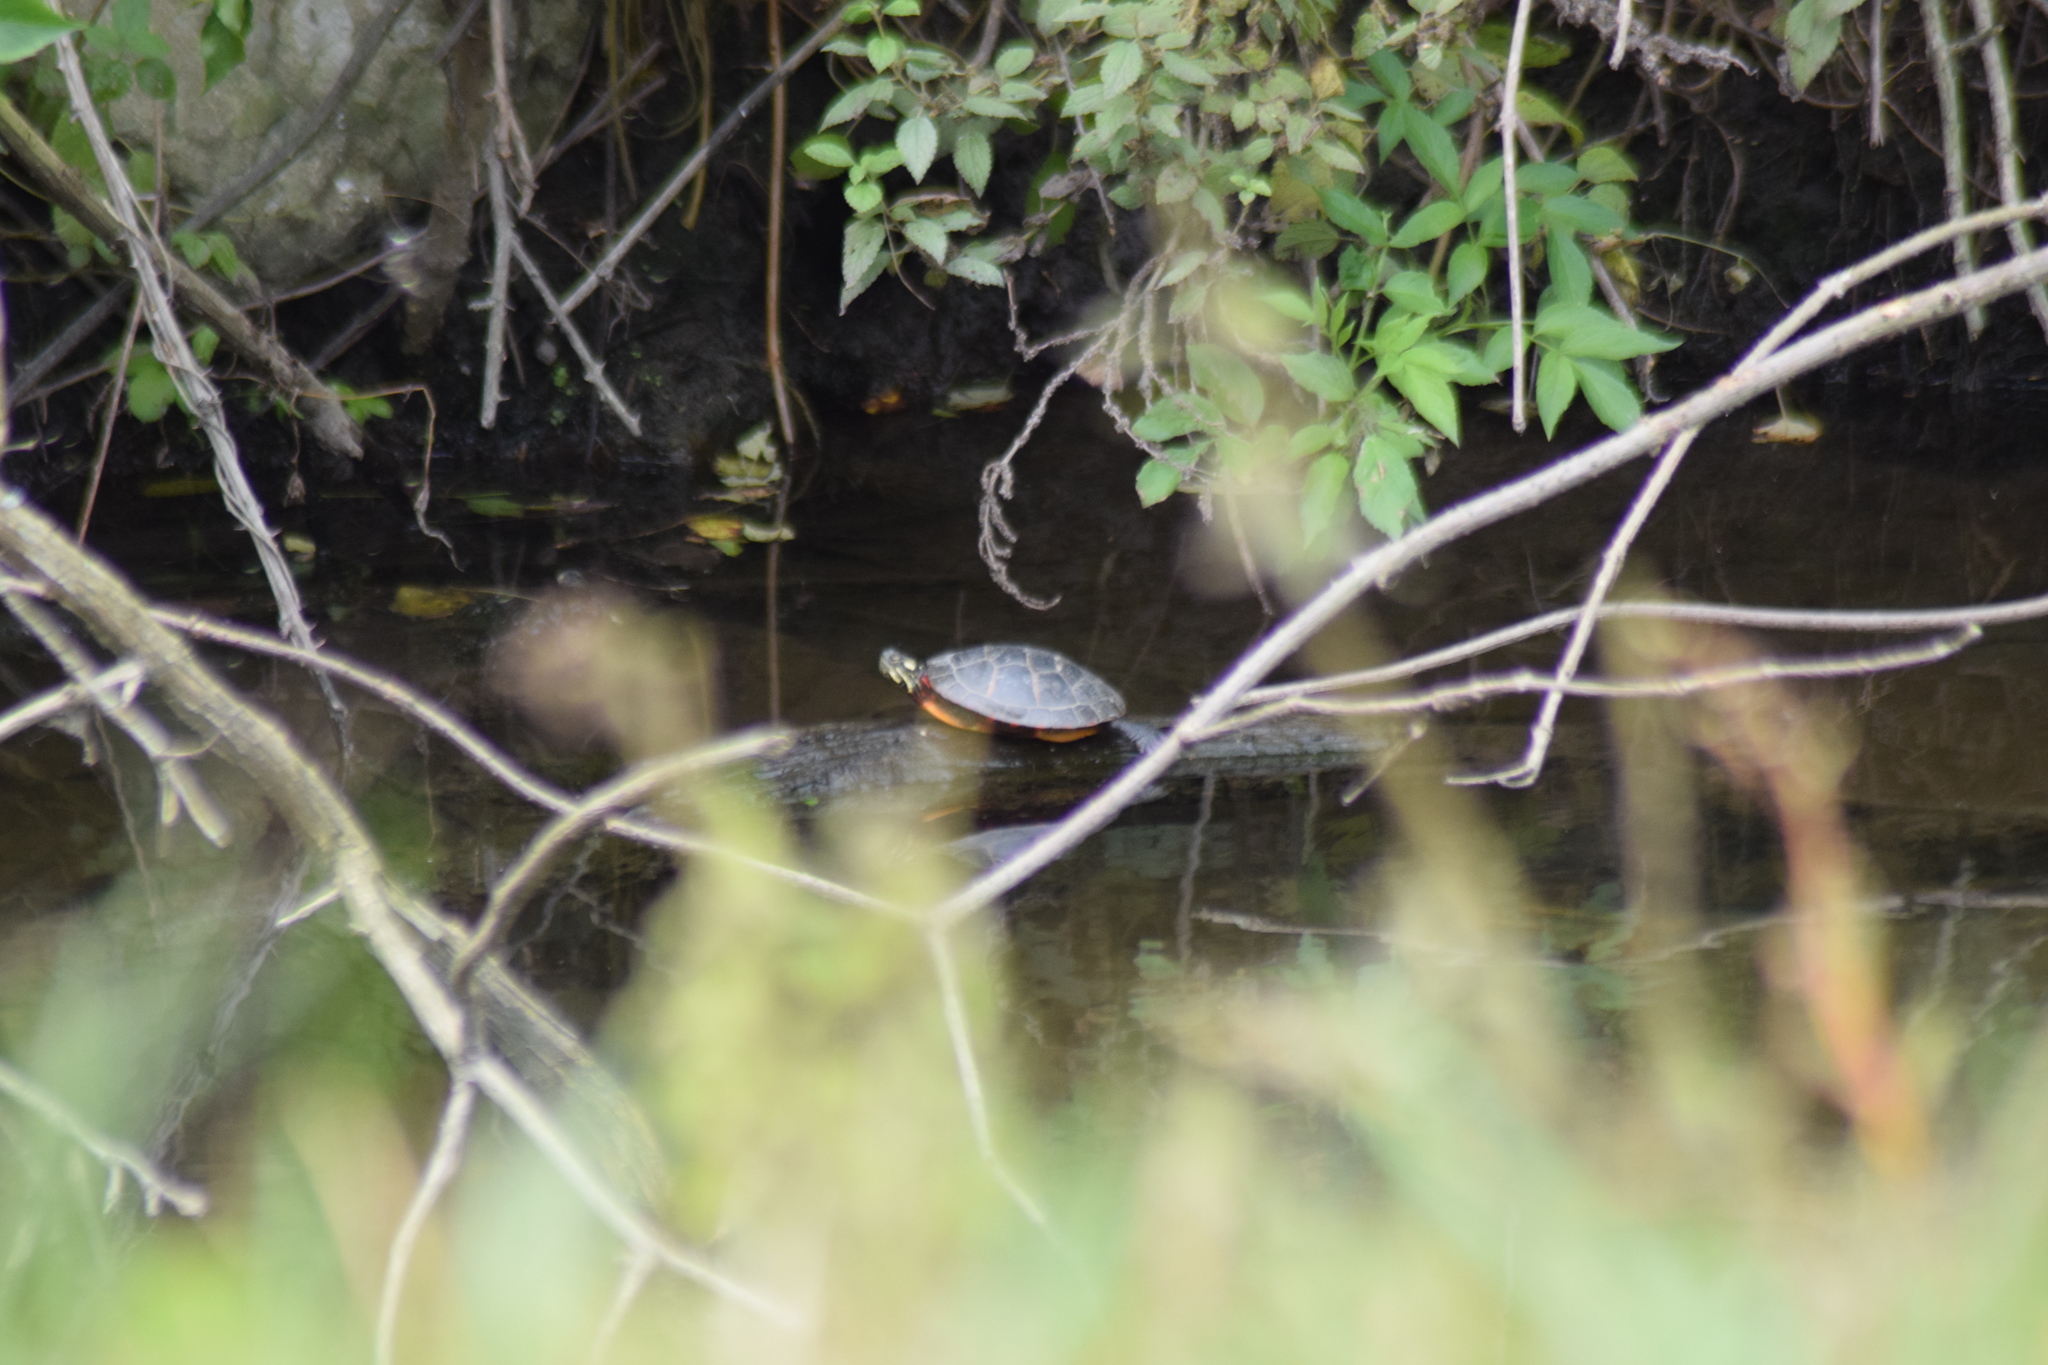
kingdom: Animalia
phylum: Chordata
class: Testudines
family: Emydidae
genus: Chrysemys
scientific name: Chrysemys picta
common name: Painted turtle
